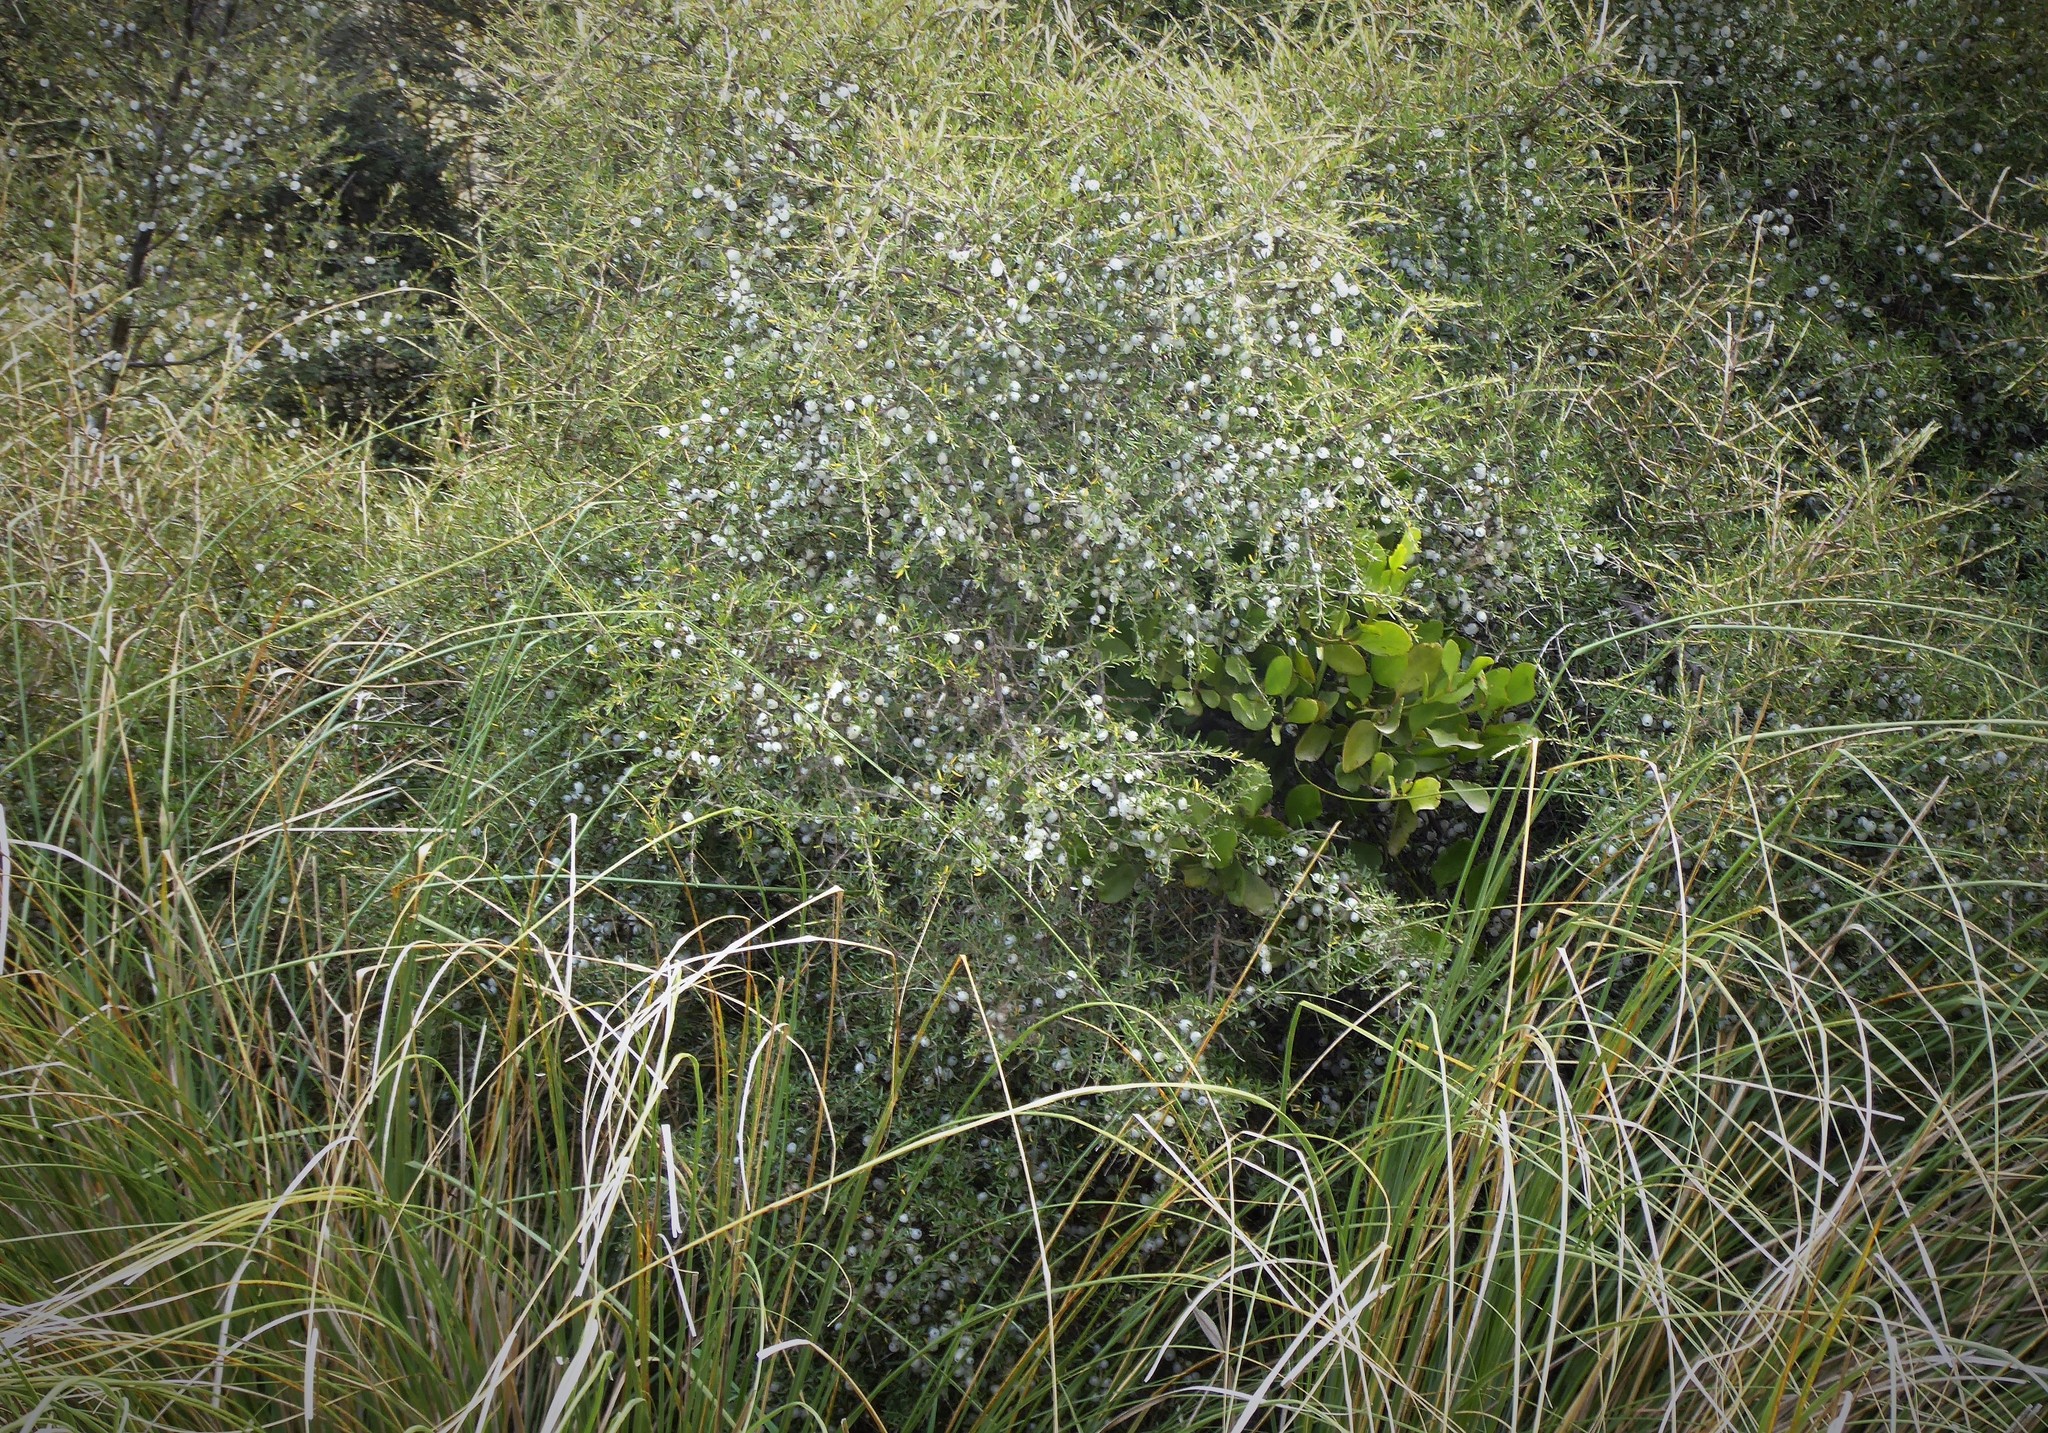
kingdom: Plantae
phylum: Tracheophyta
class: Magnoliopsida
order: Santalales
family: Loranthaceae
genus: Ileostylus
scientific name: Ileostylus micranthus
